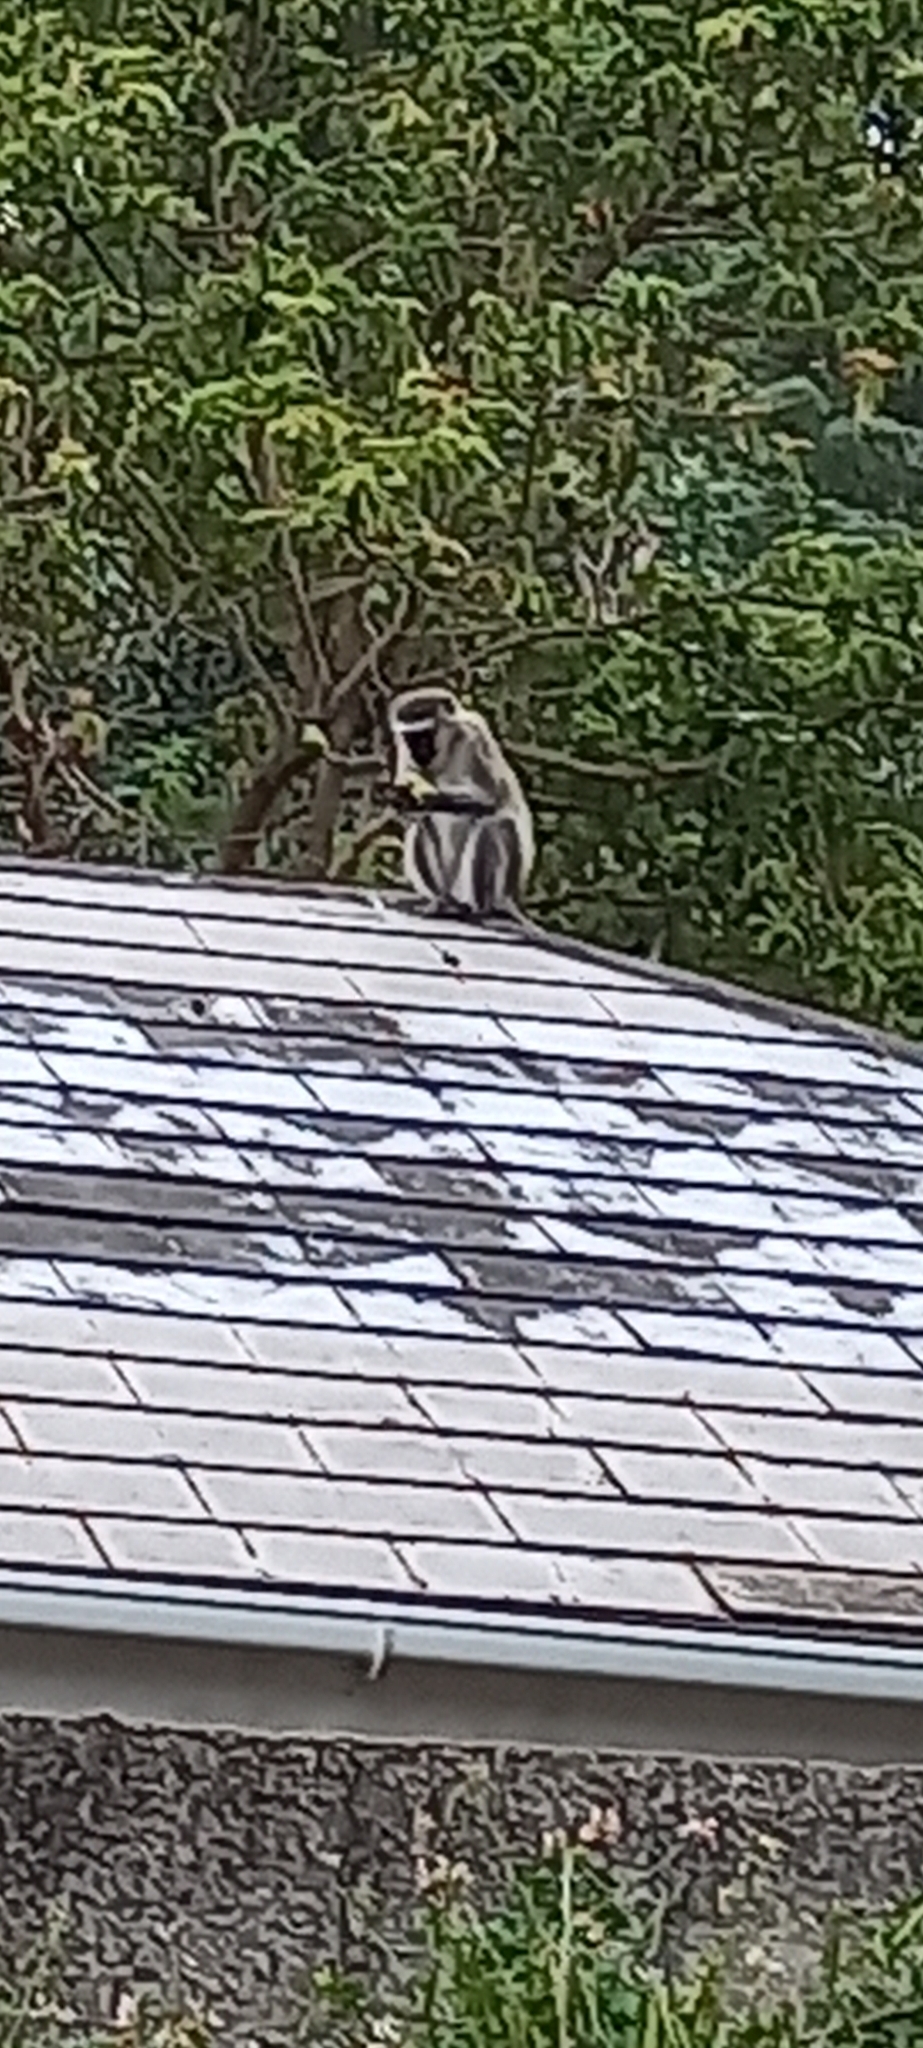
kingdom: Animalia
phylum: Chordata
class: Mammalia
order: Primates
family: Cercopithecidae
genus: Chlorocebus
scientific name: Chlorocebus pygerythrus
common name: Vervet monkey
